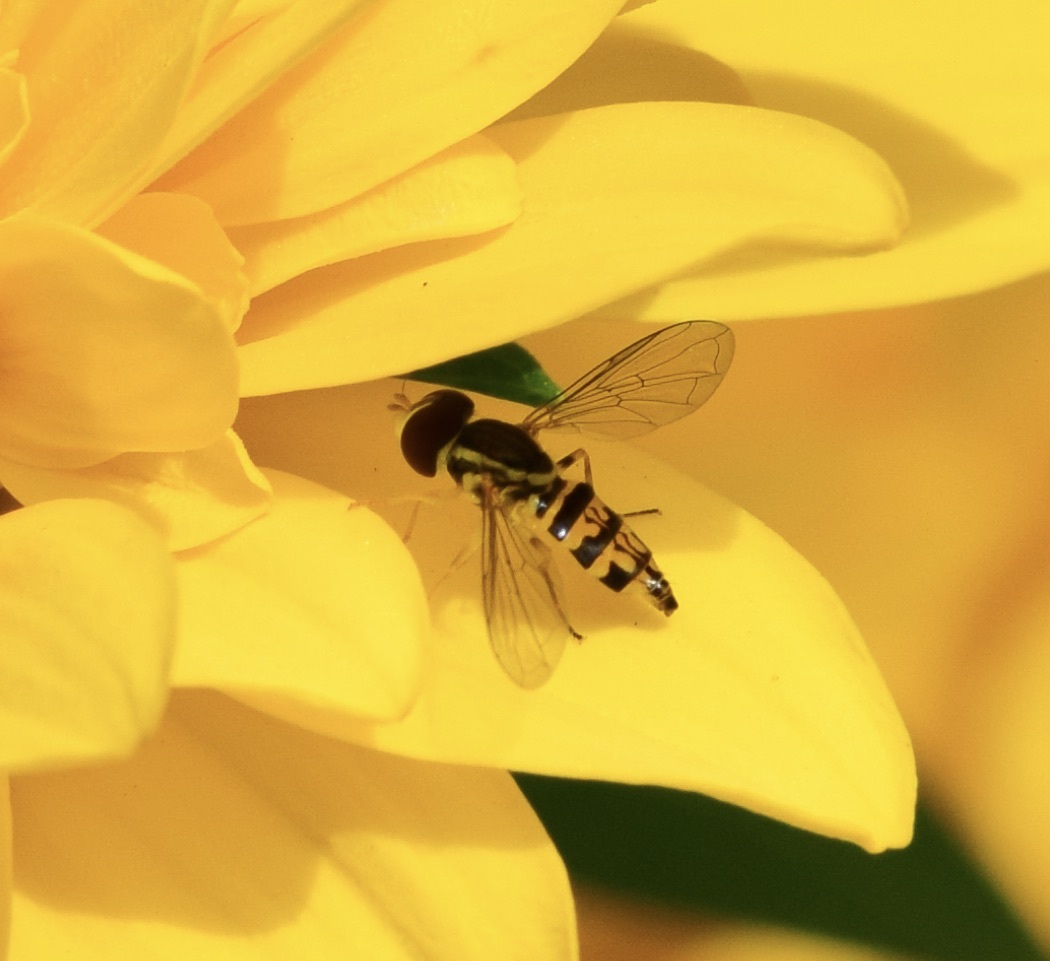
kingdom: Animalia
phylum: Arthropoda
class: Insecta
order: Diptera
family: Syrphidae
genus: Toxomerus
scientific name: Toxomerus geminatus
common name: Eastern calligrapher
